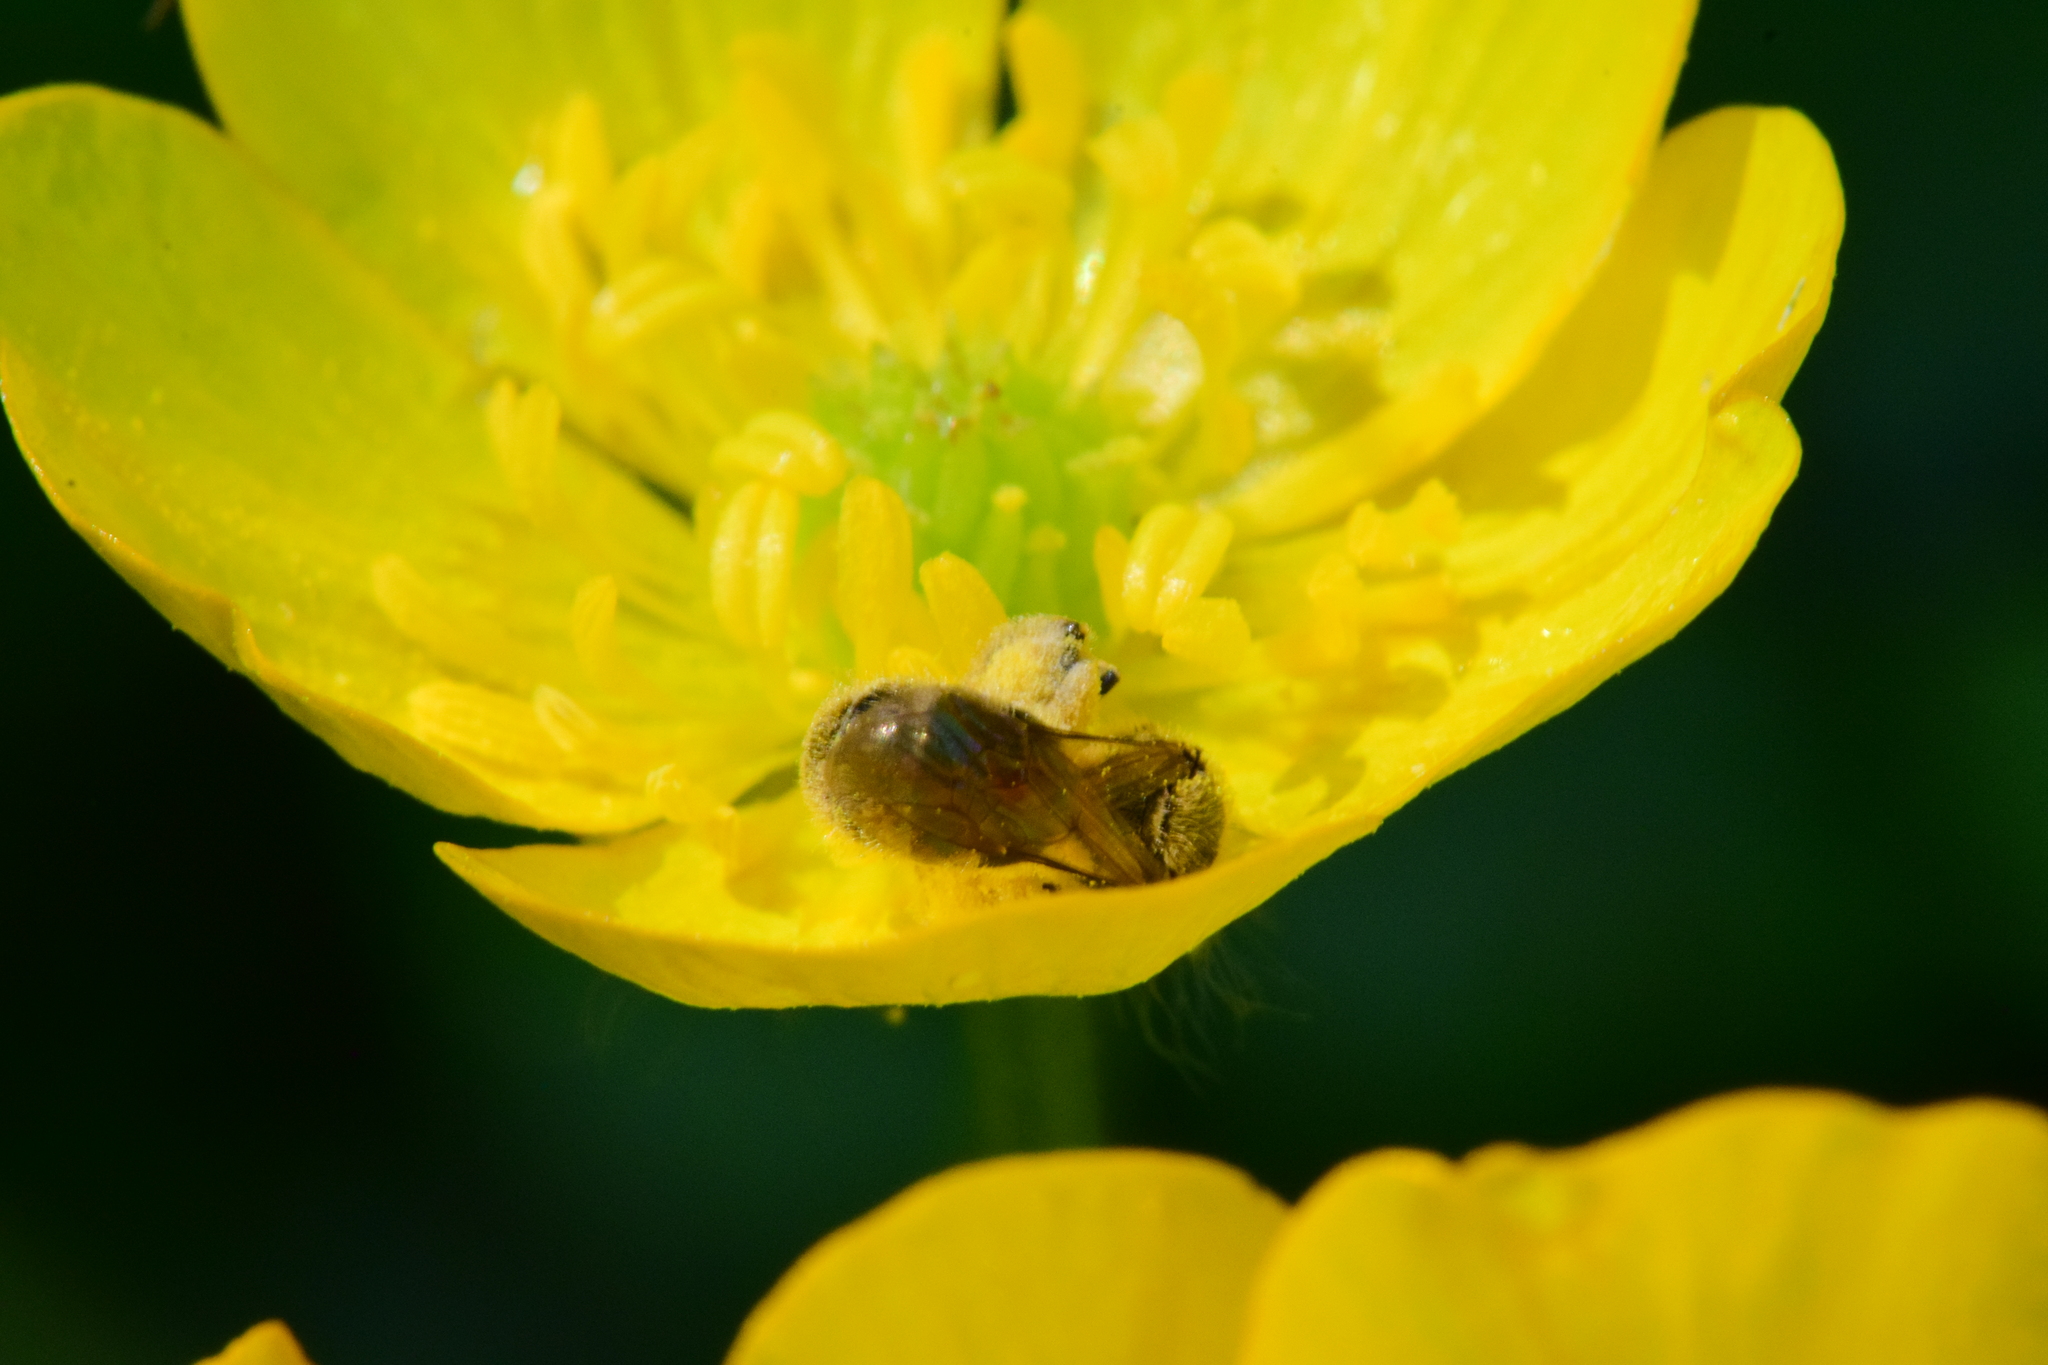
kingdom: Animalia
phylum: Arthropoda
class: Insecta
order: Hymenoptera
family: Halictidae
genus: Lasioglossum
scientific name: Lasioglossum cressonii
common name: Cresson's dialictus
